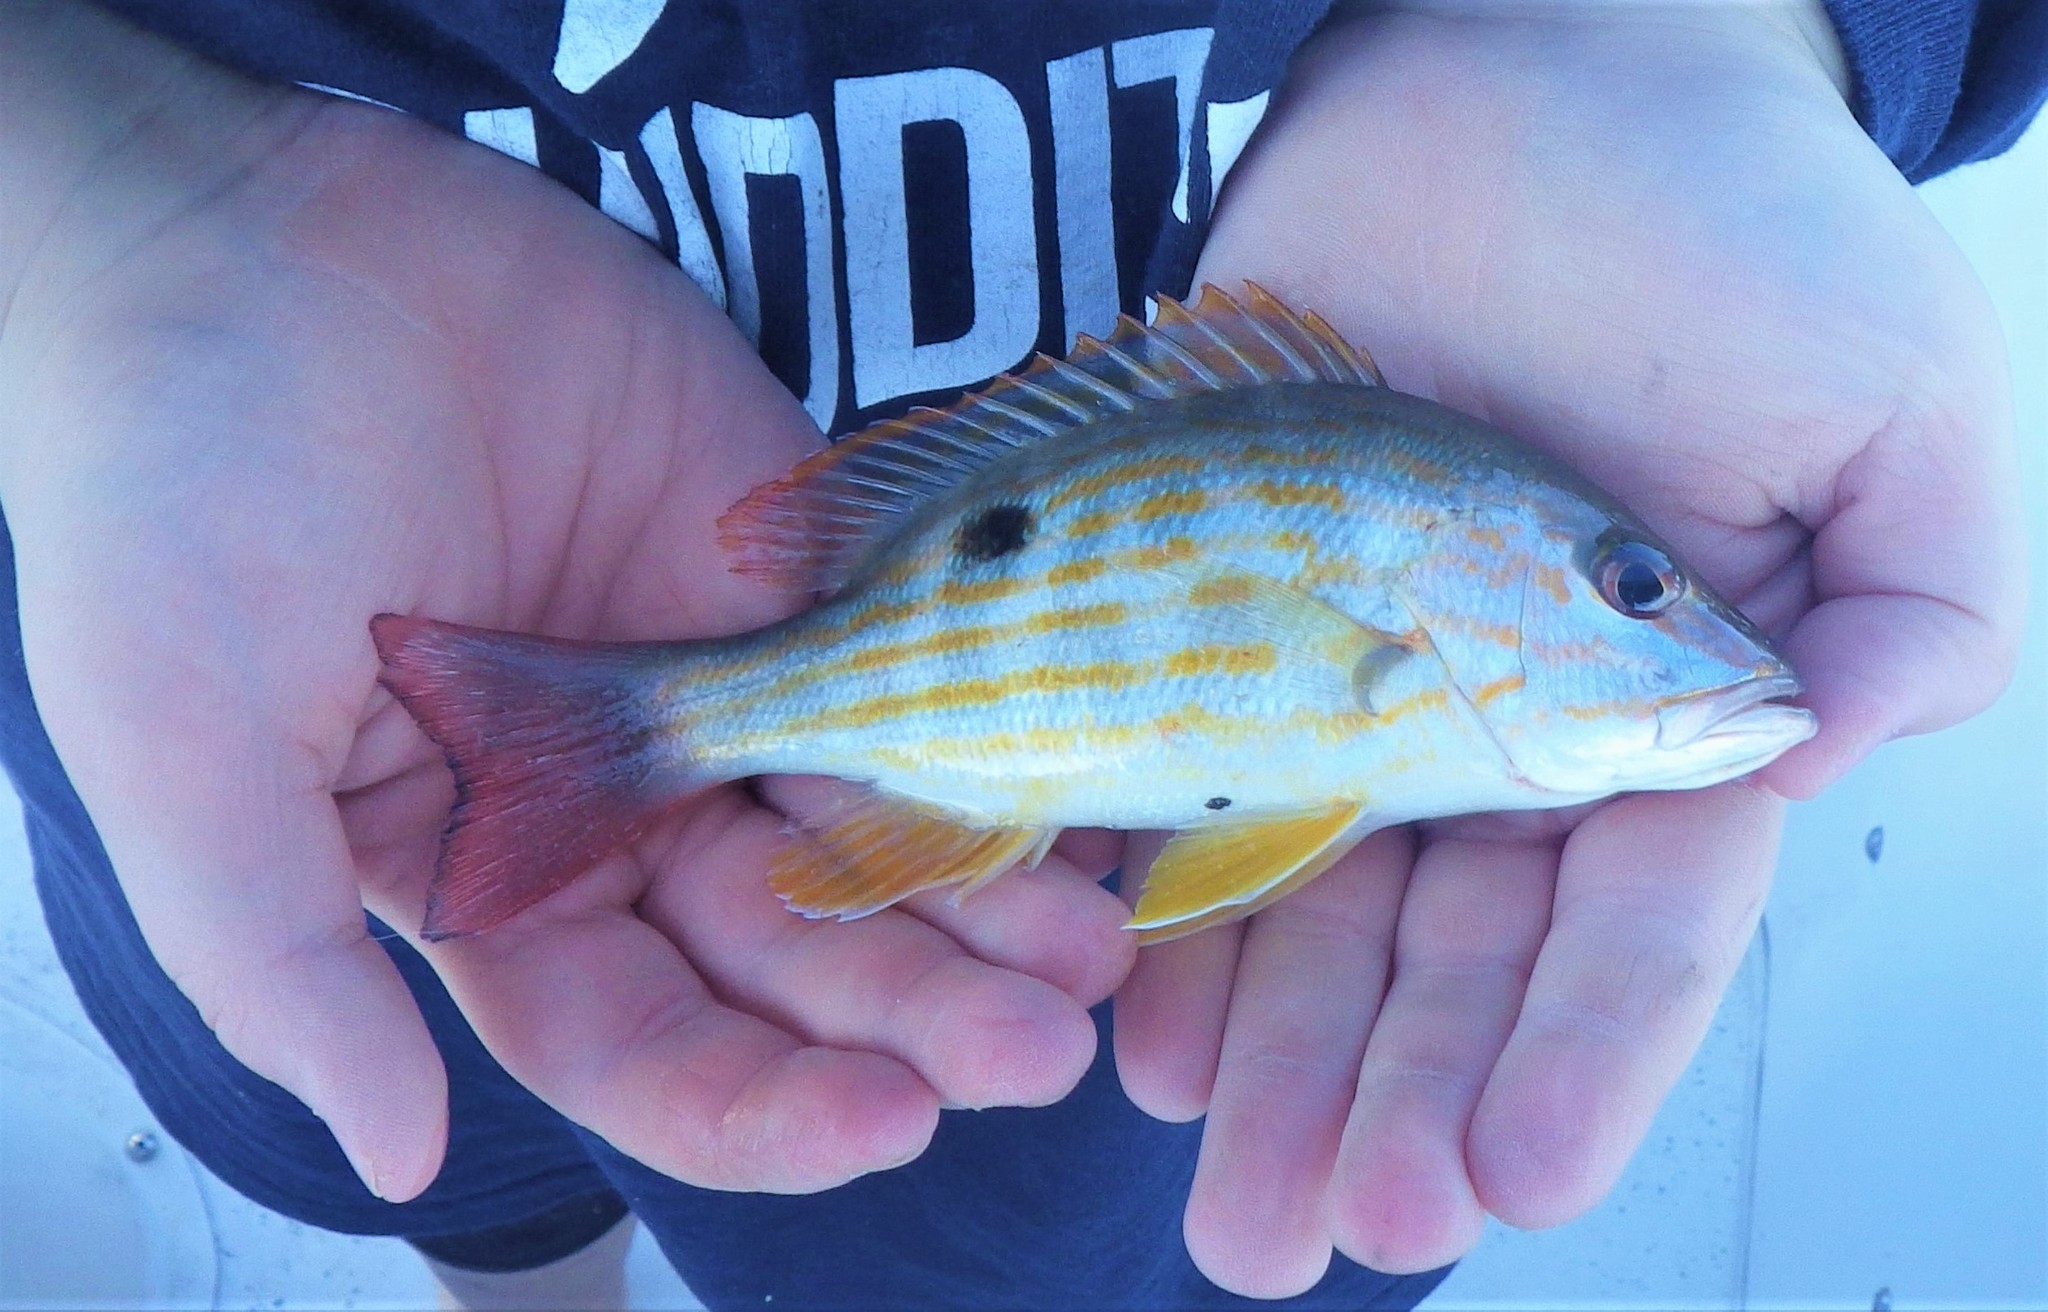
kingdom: Animalia
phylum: Chordata
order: Perciformes
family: Lutjanidae
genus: Lutjanus
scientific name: Lutjanus synagris
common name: Lane snapper
